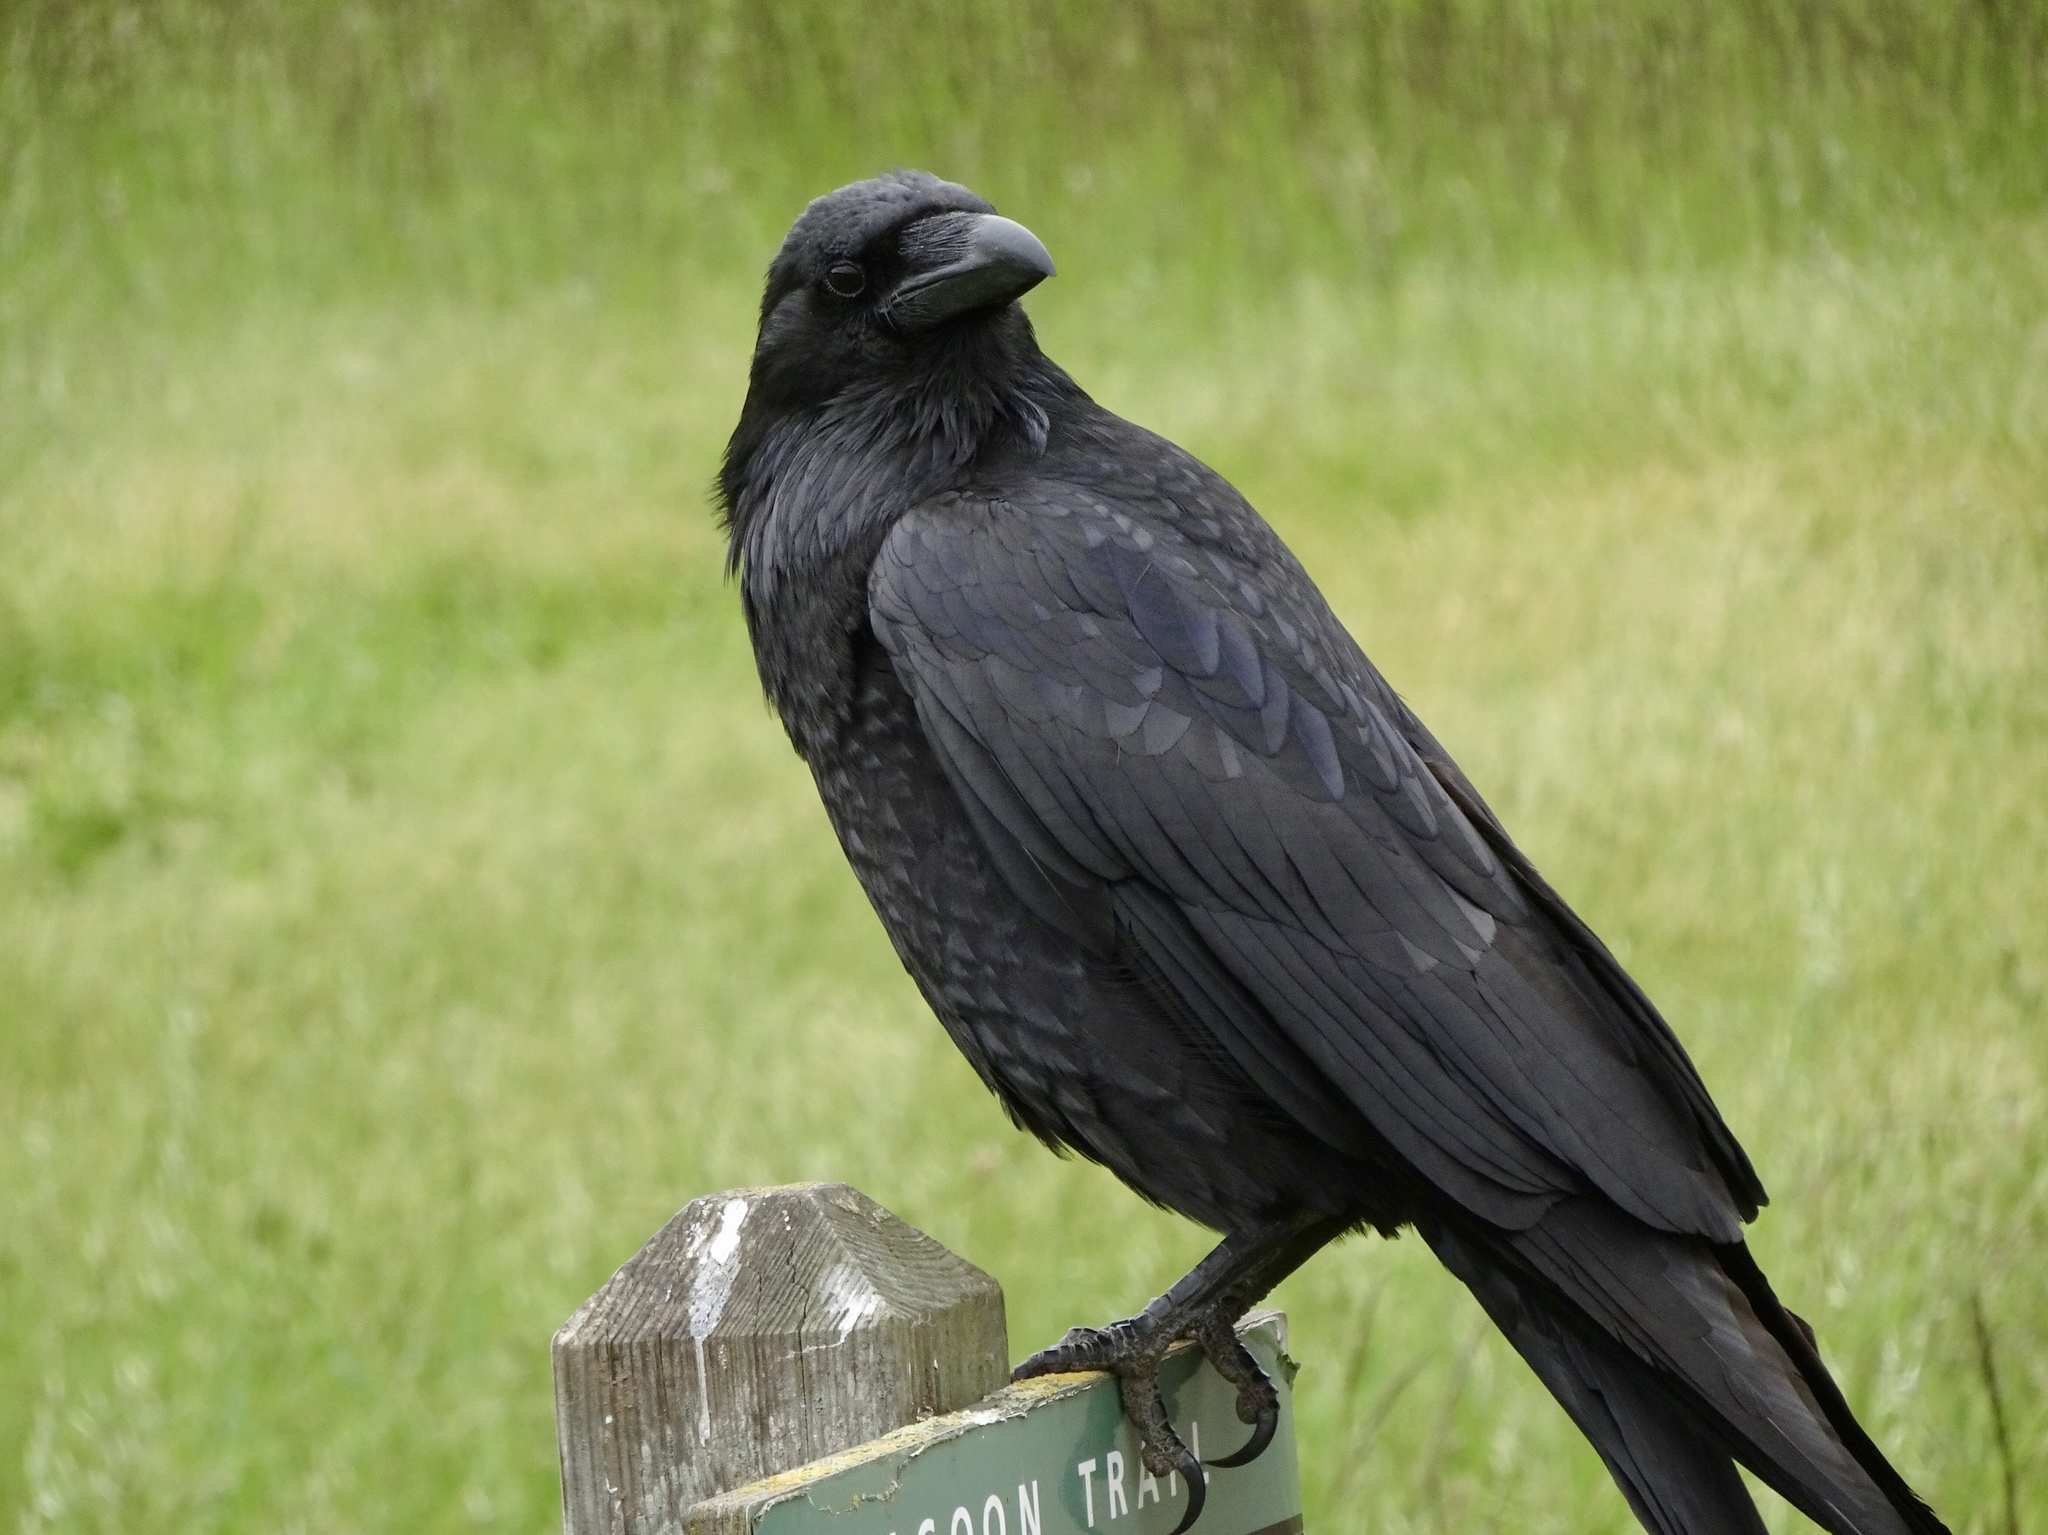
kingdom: Animalia
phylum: Chordata
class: Aves
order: Passeriformes
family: Corvidae
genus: Corvus
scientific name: Corvus corax
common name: Common raven
